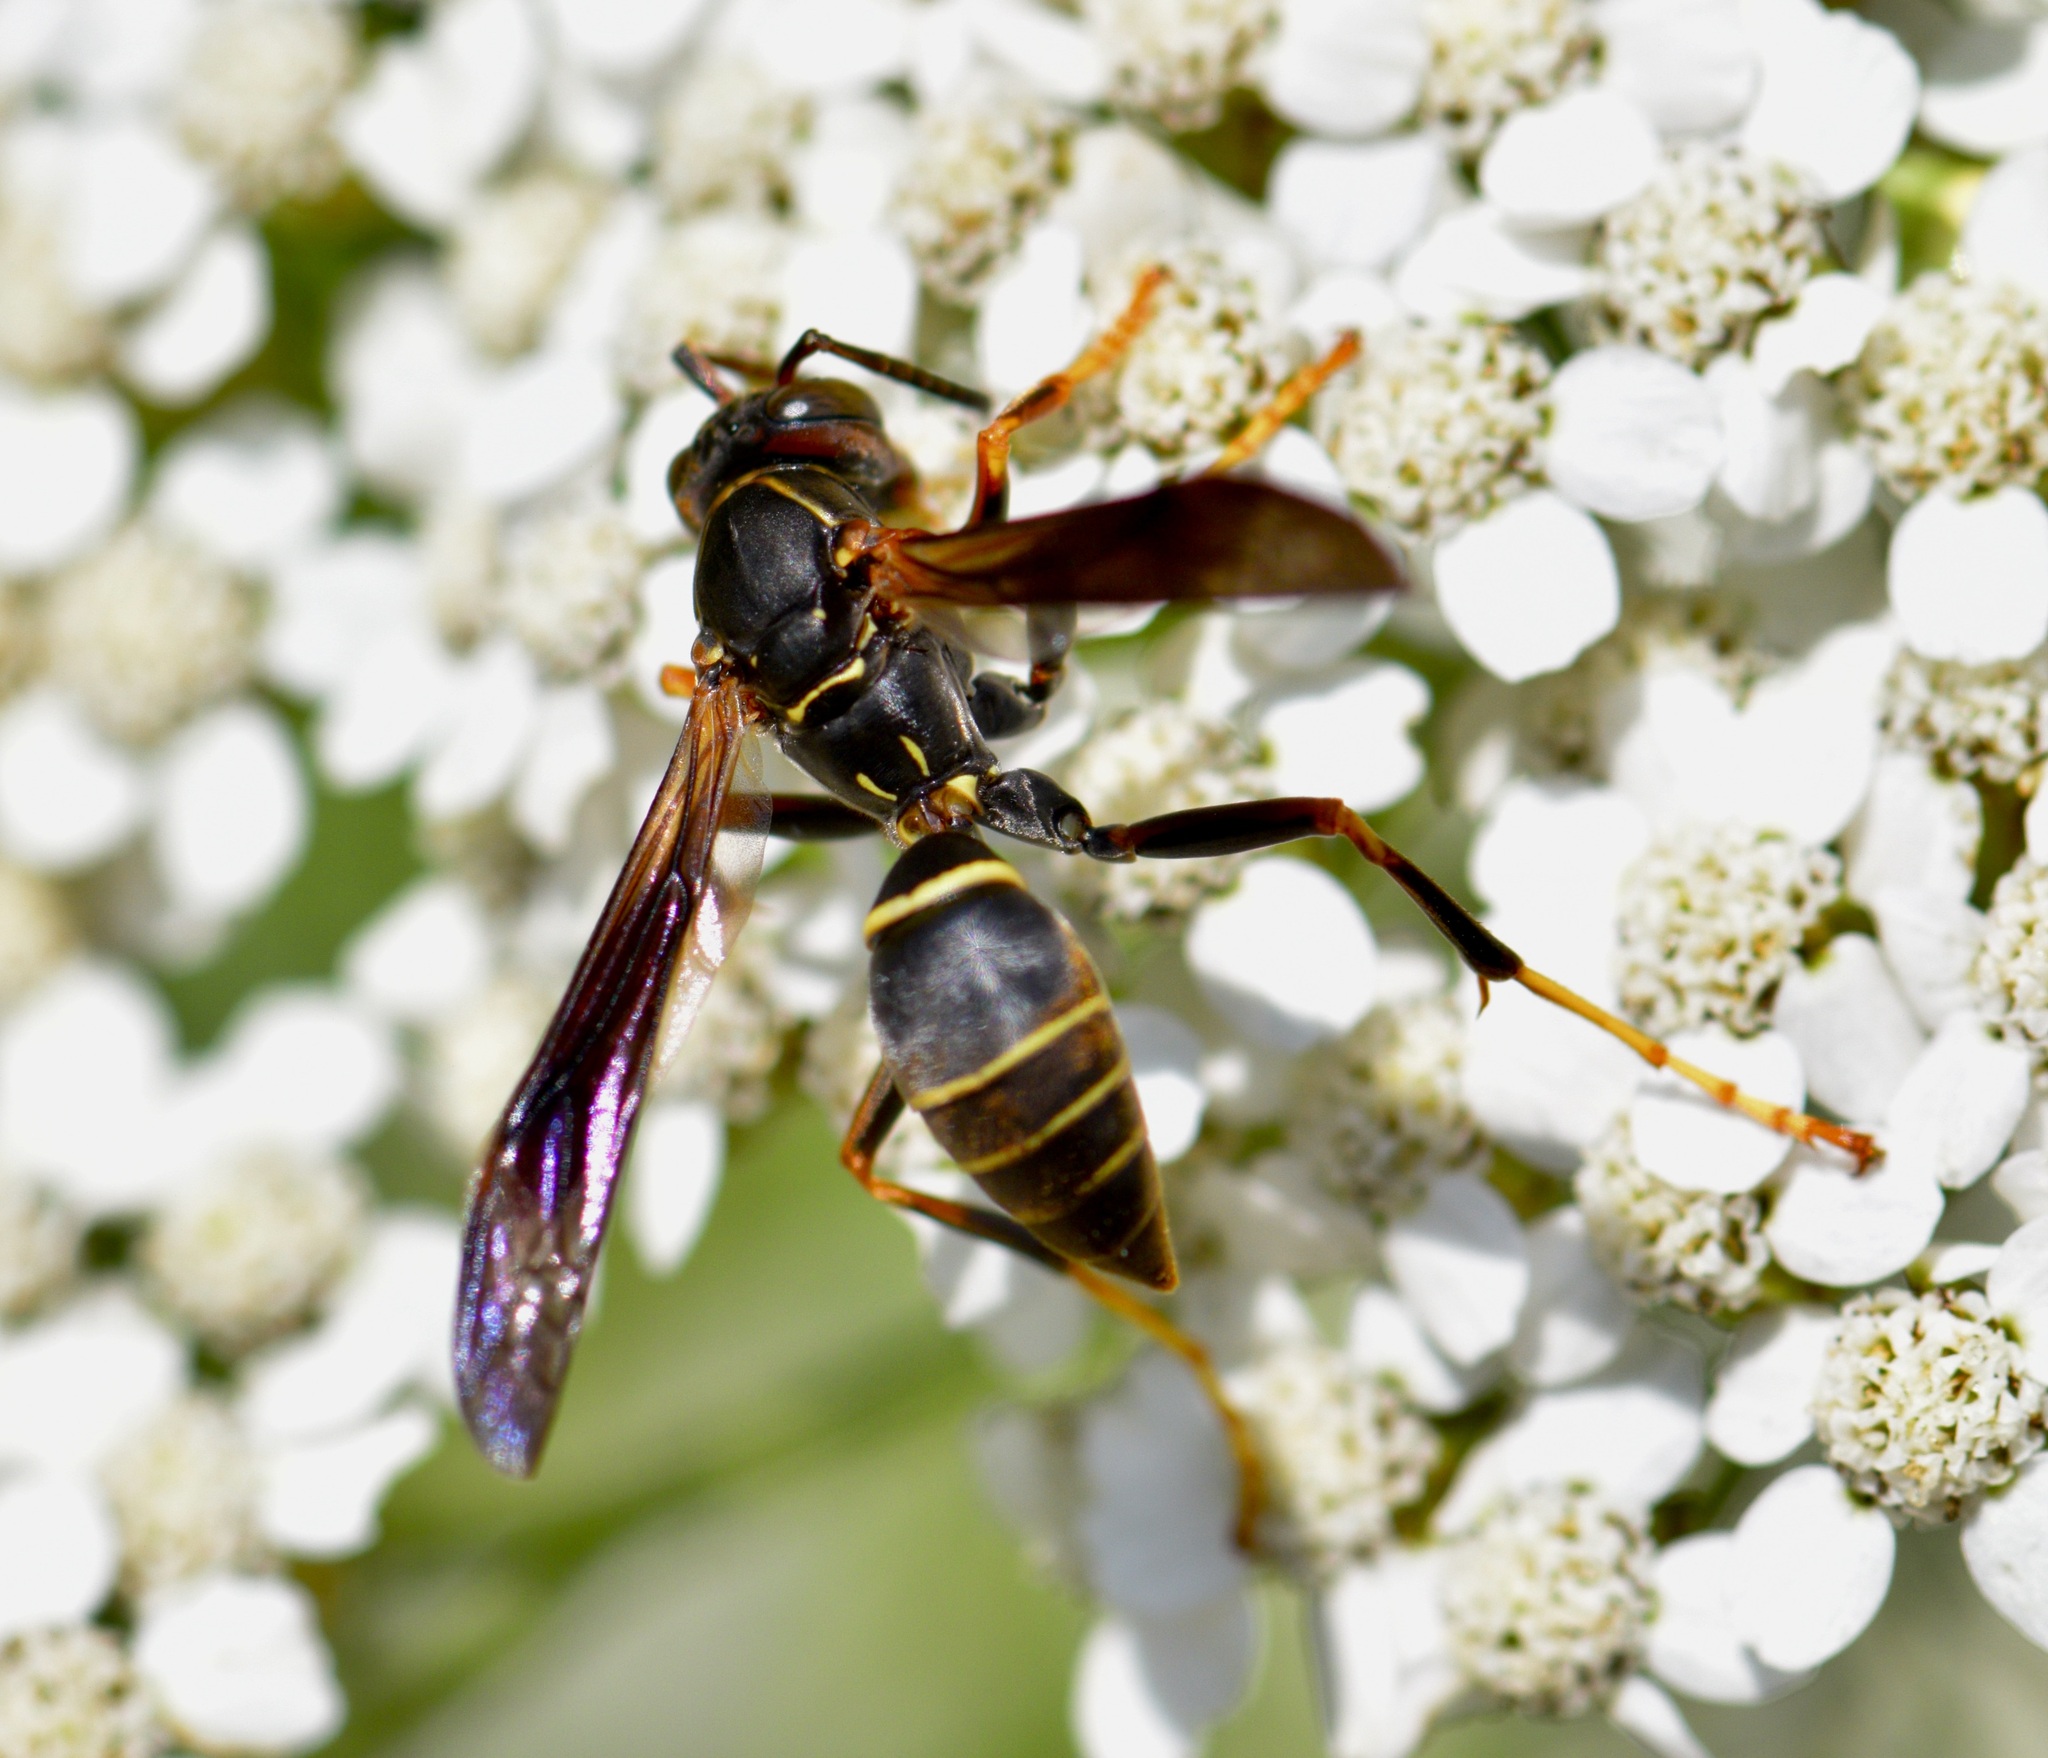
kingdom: Animalia
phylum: Arthropoda
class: Insecta
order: Hymenoptera
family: Eumenidae
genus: Polistes
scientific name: Polistes fuscatus
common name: Dark paper wasp
